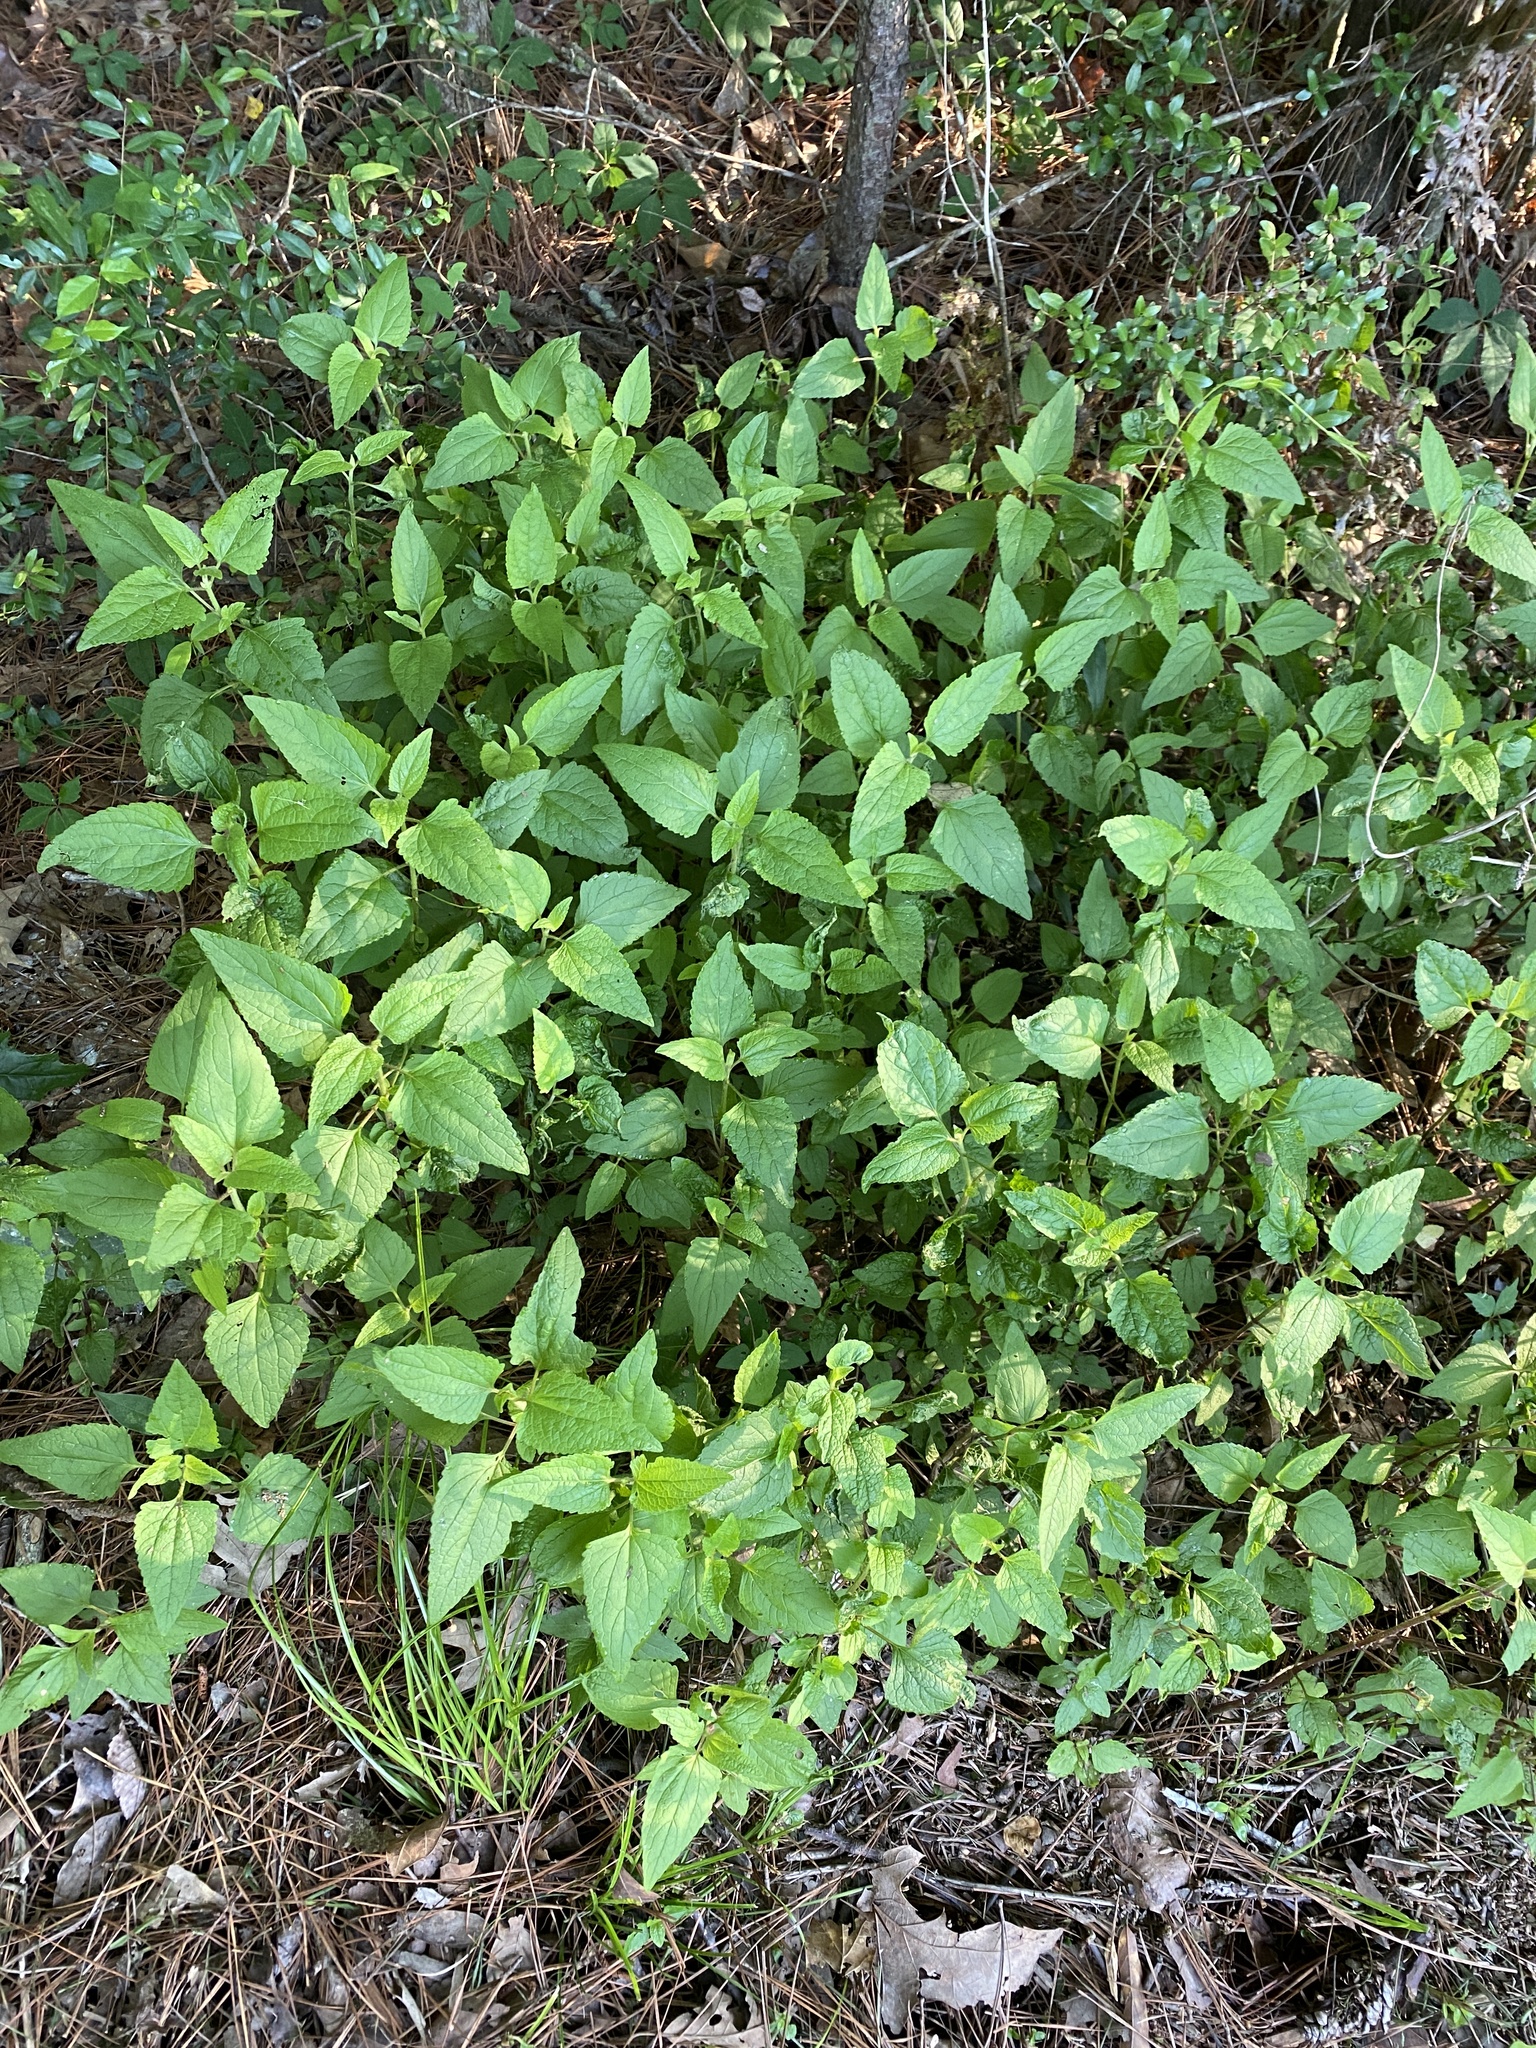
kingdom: Plantae
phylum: Tracheophyta
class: Magnoliopsida
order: Asterales
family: Asteraceae
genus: Conoclinium
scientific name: Conoclinium coelestinum
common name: Blue mistflower
